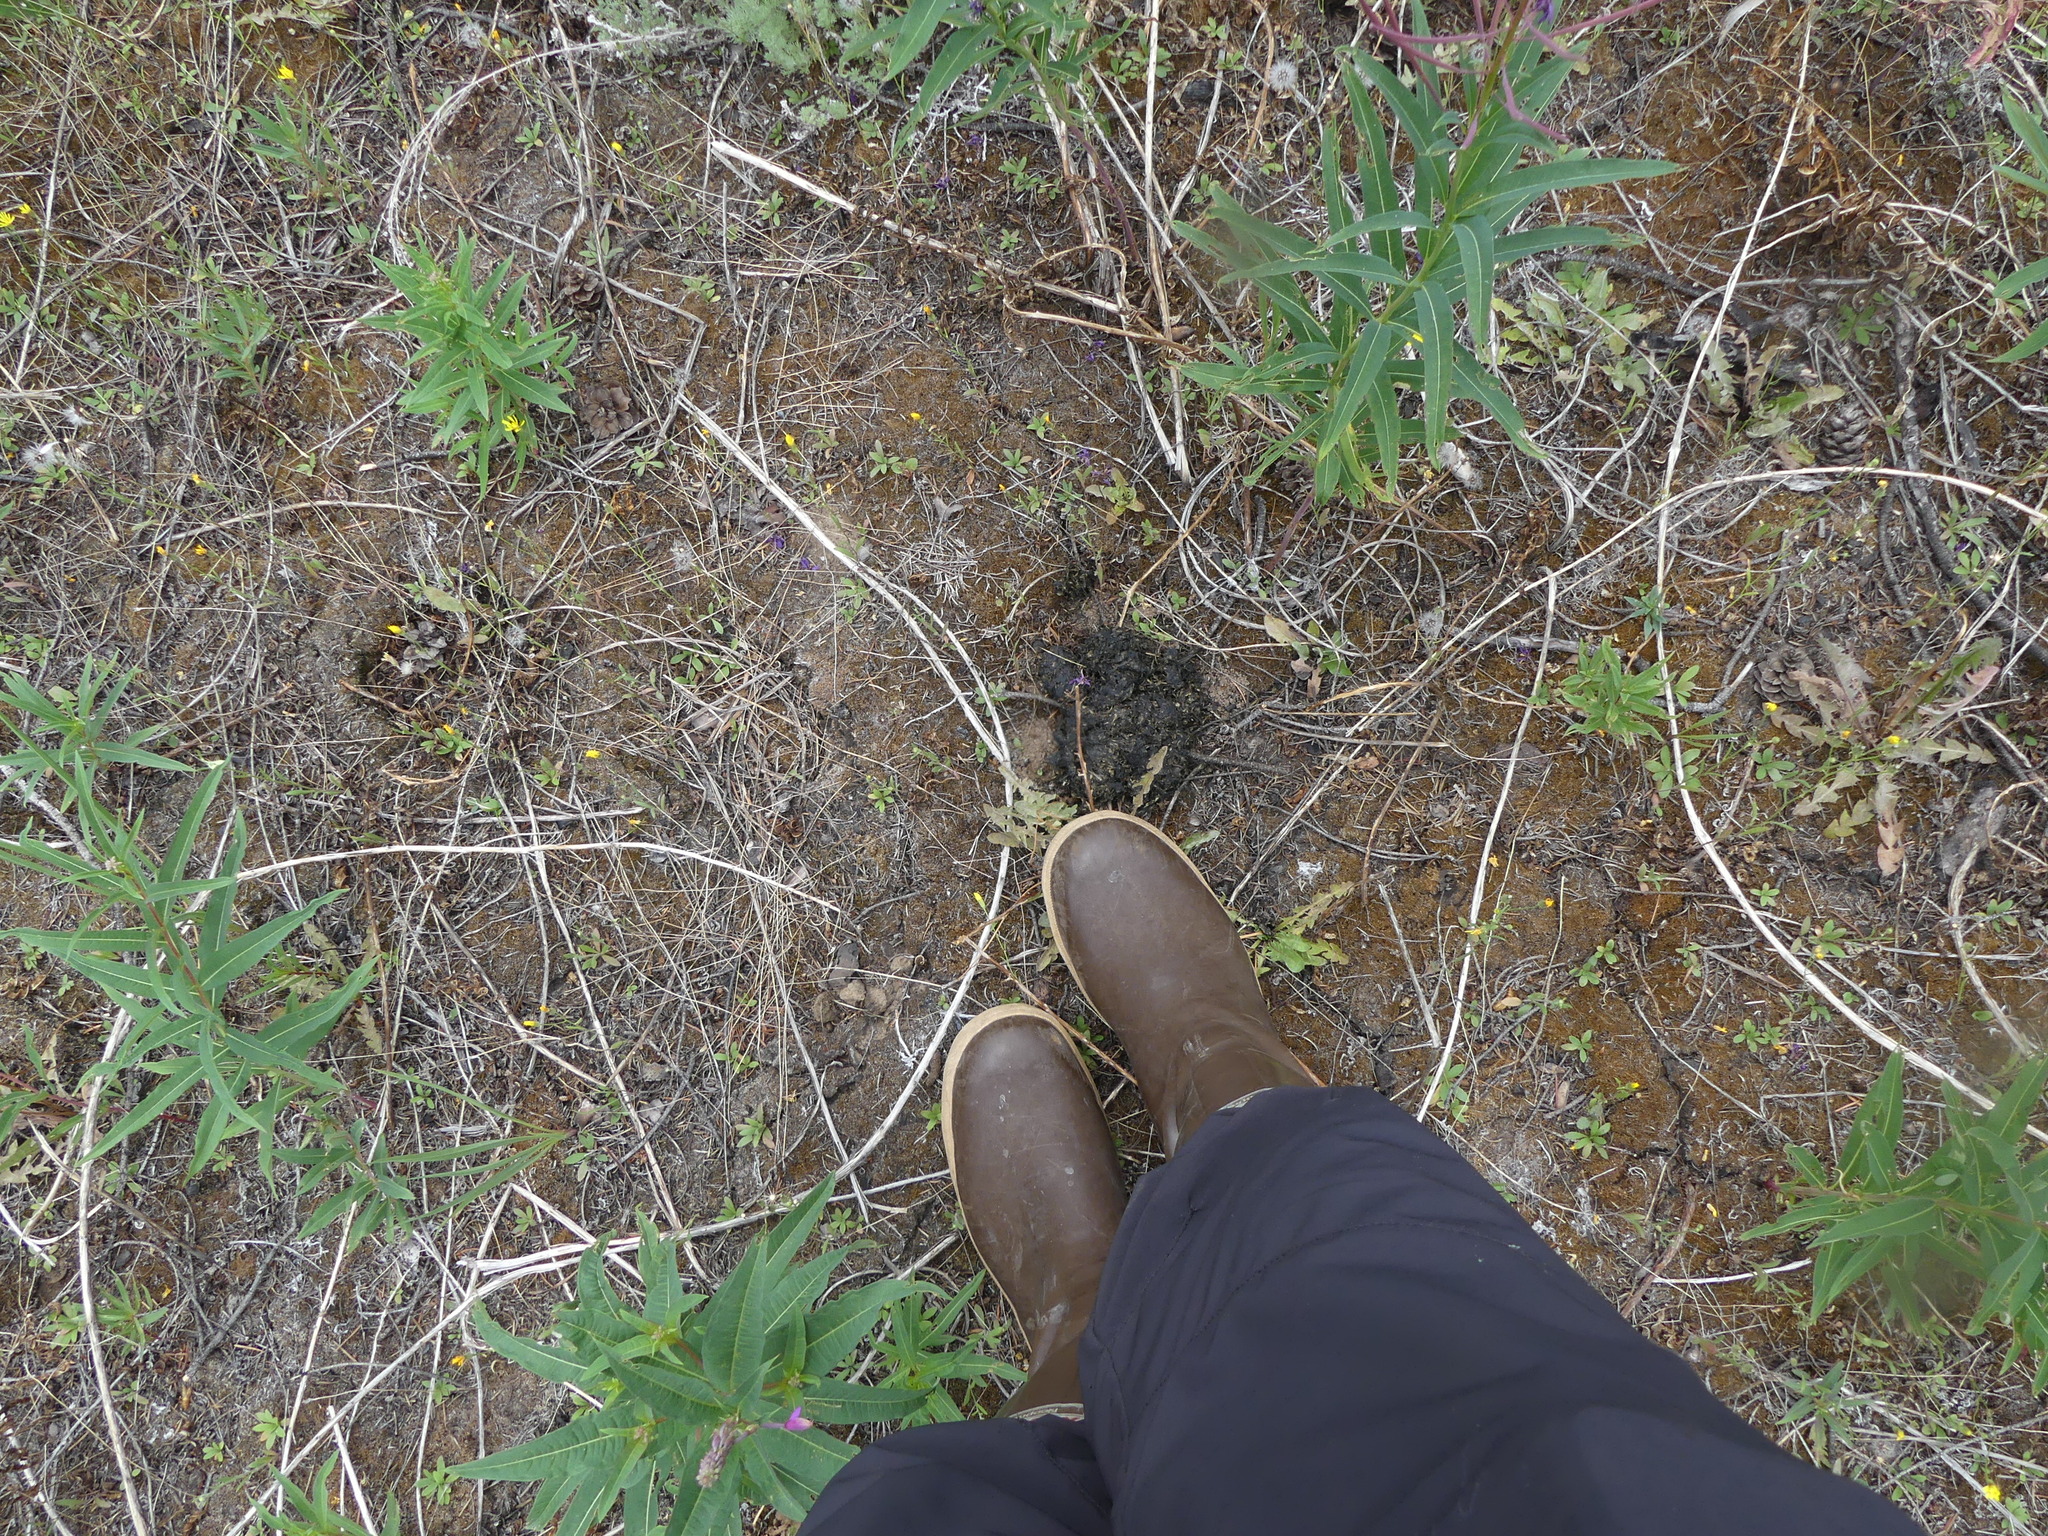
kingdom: Animalia
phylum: Chordata
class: Mammalia
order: Carnivora
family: Ursidae
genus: Ursus
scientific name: Ursus americanus
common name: American black bear
